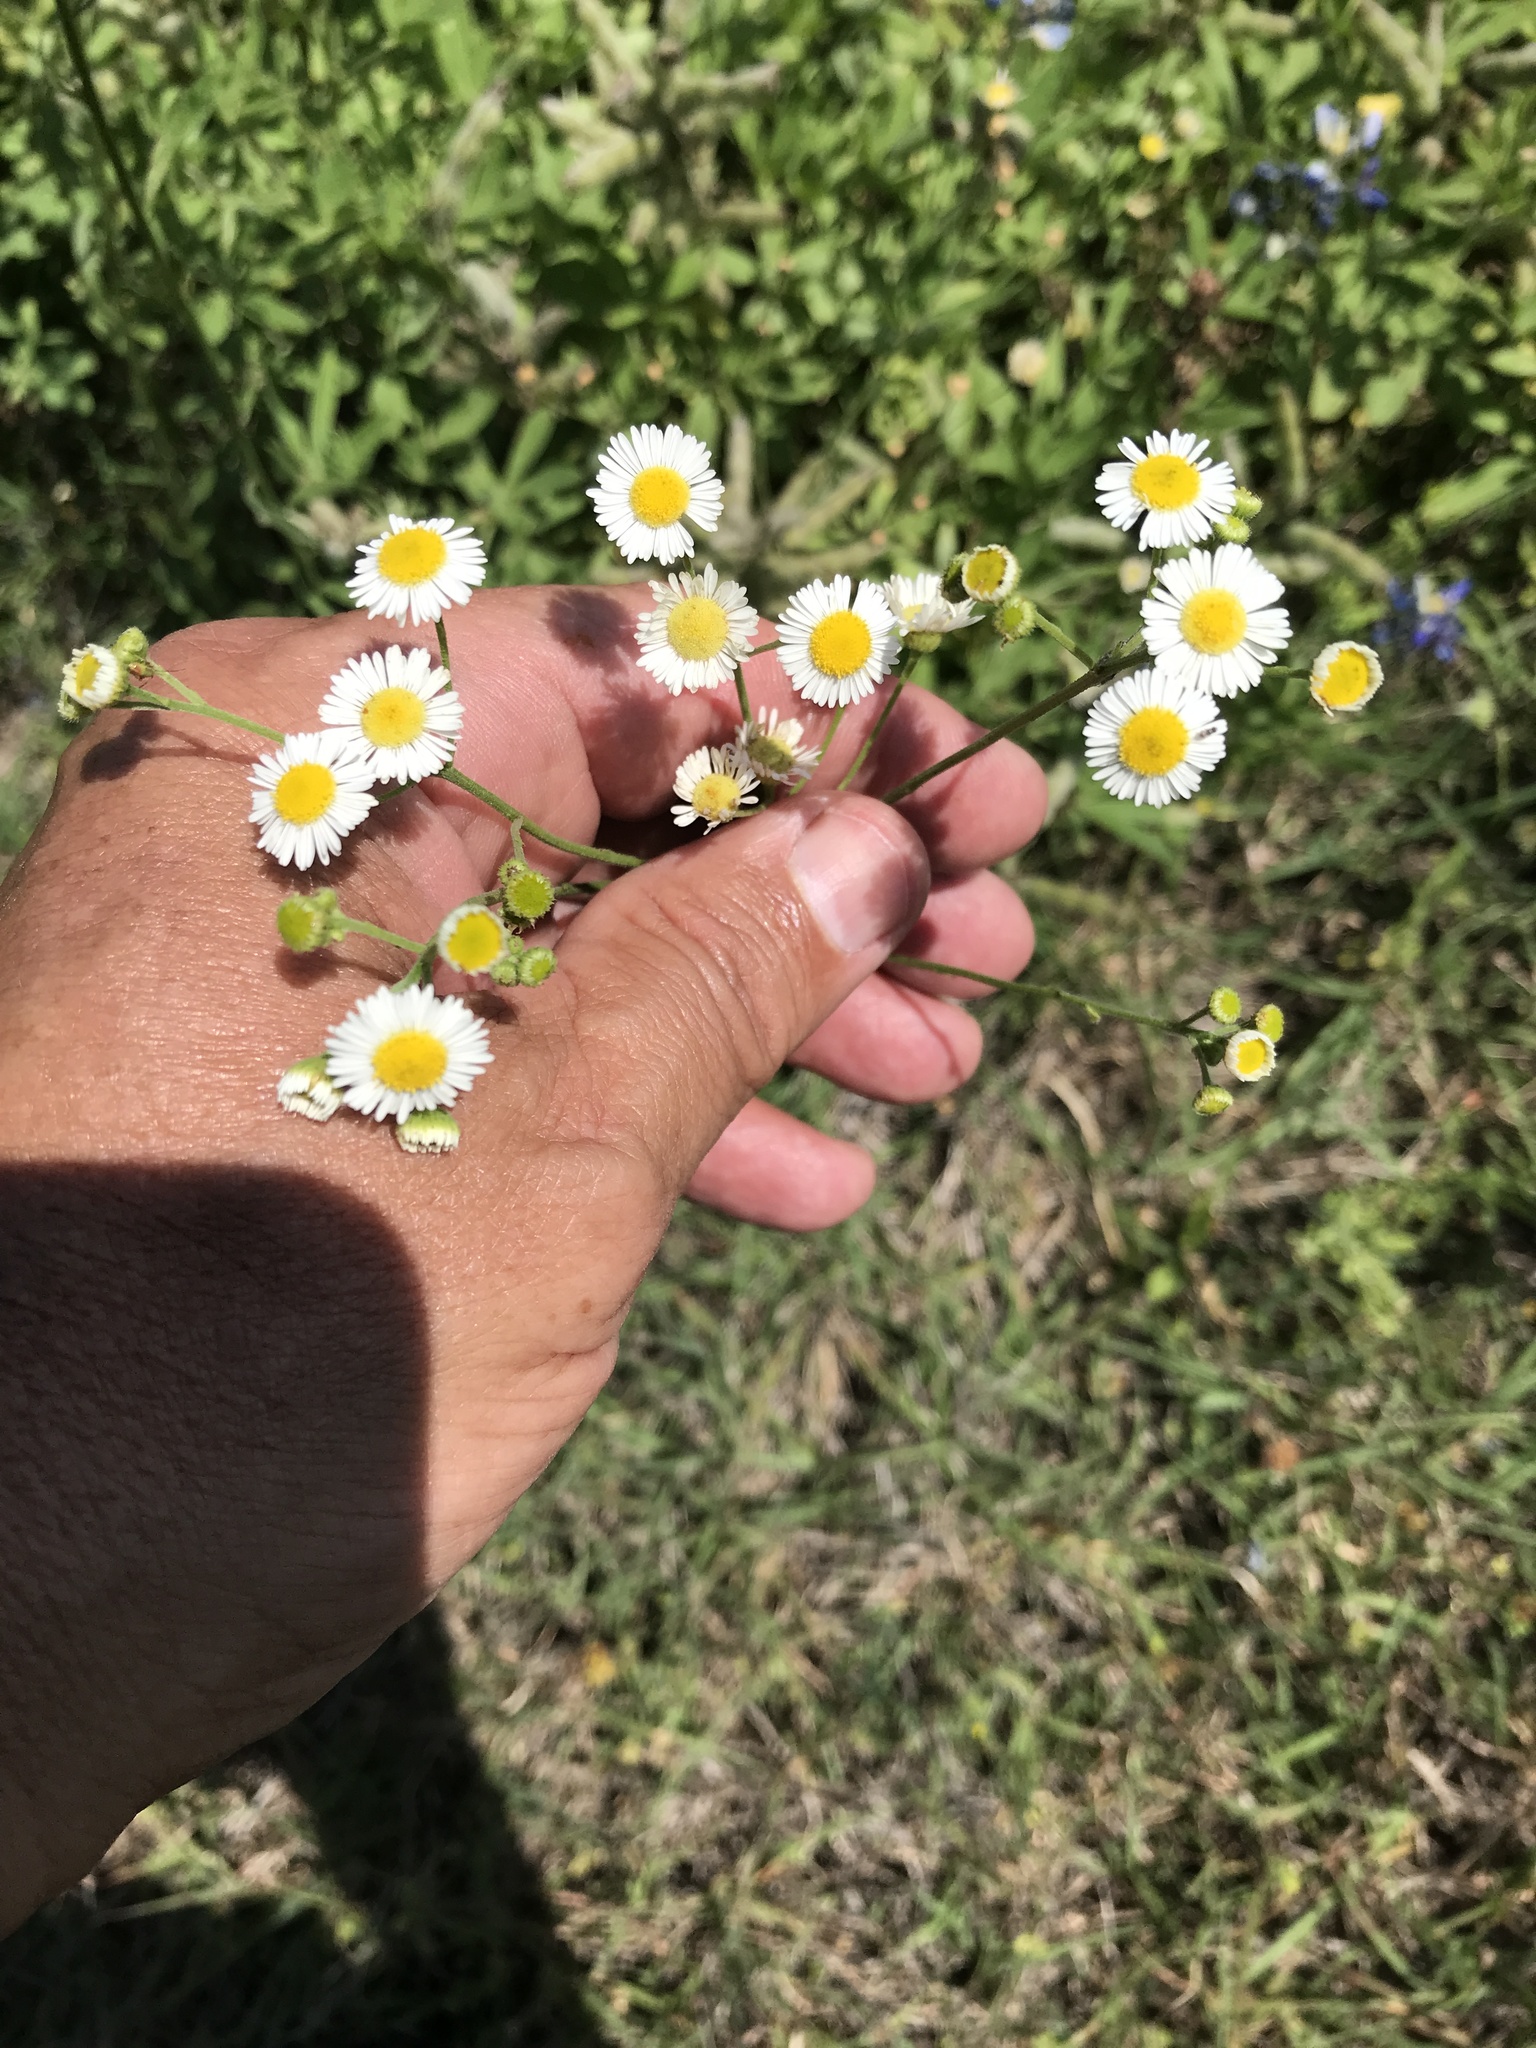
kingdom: Plantae
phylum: Tracheophyta
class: Magnoliopsida
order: Asterales
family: Asteraceae
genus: Erigeron
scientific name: Erigeron strigosus
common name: Common eastern fleabane
